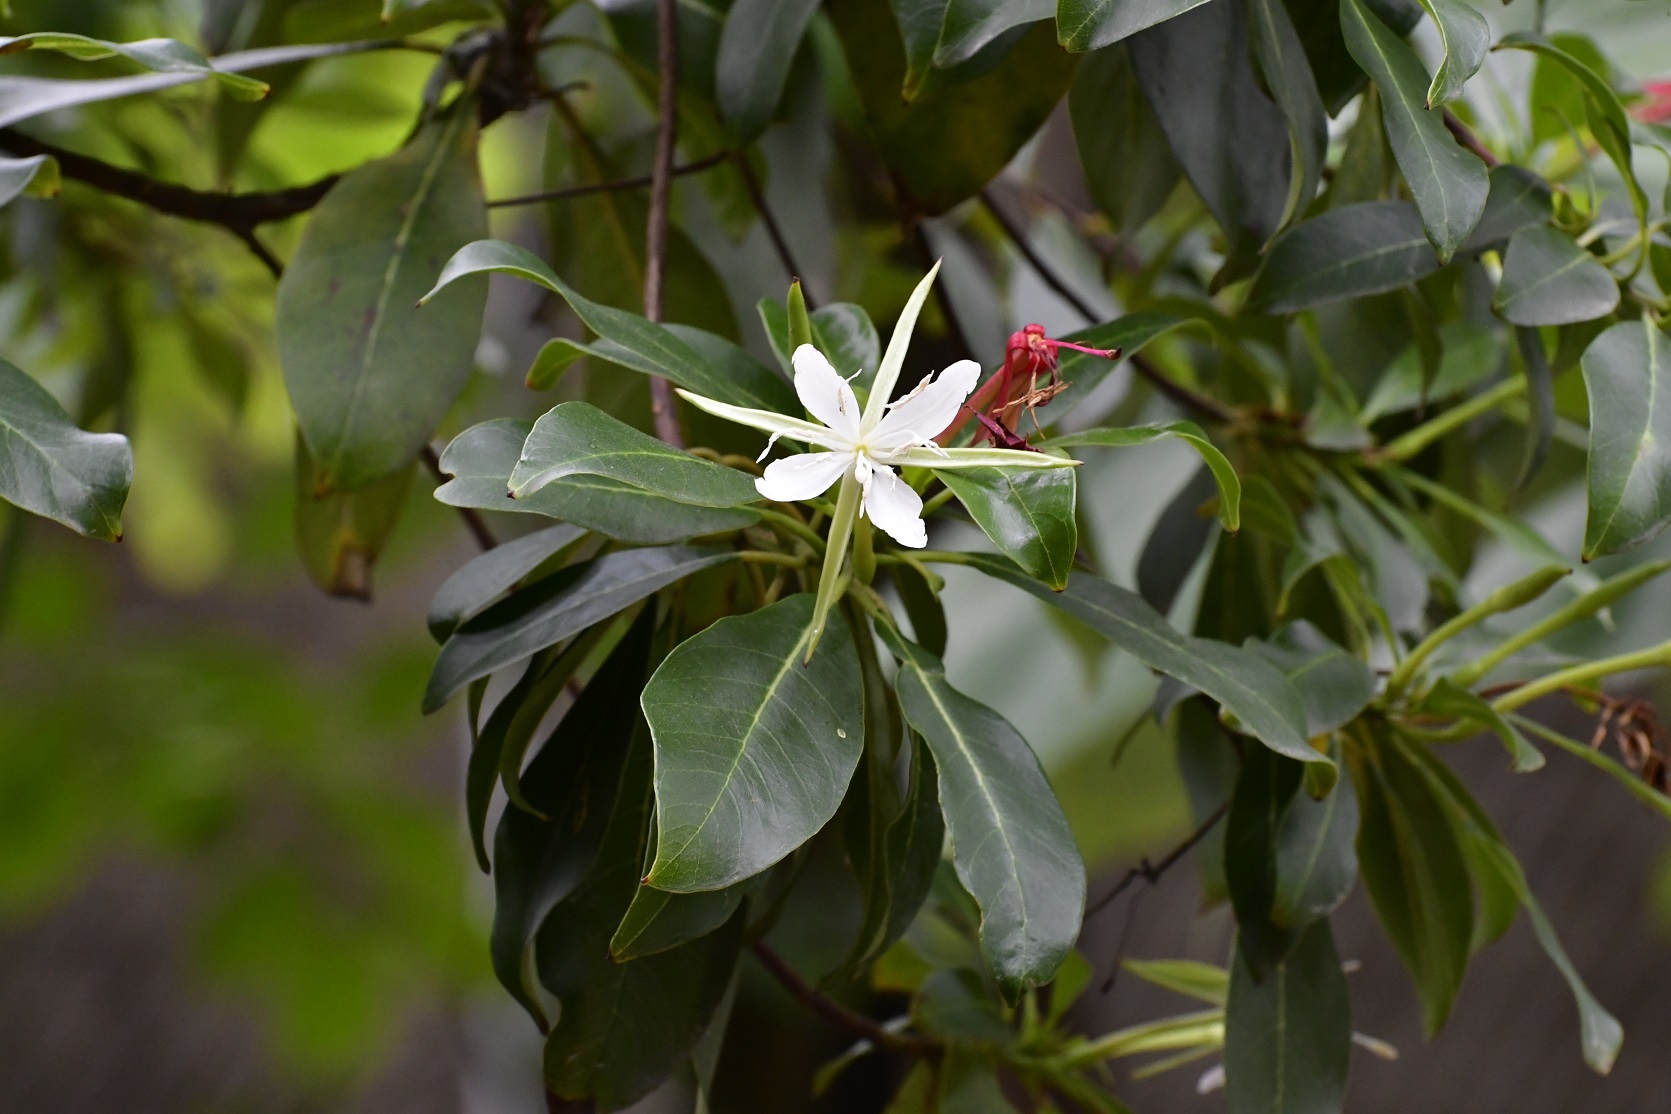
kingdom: Plantae
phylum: Tracheophyta
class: Magnoliopsida
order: Myrtales
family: Onagraceae
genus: Hauya
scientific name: Hauya elegans
